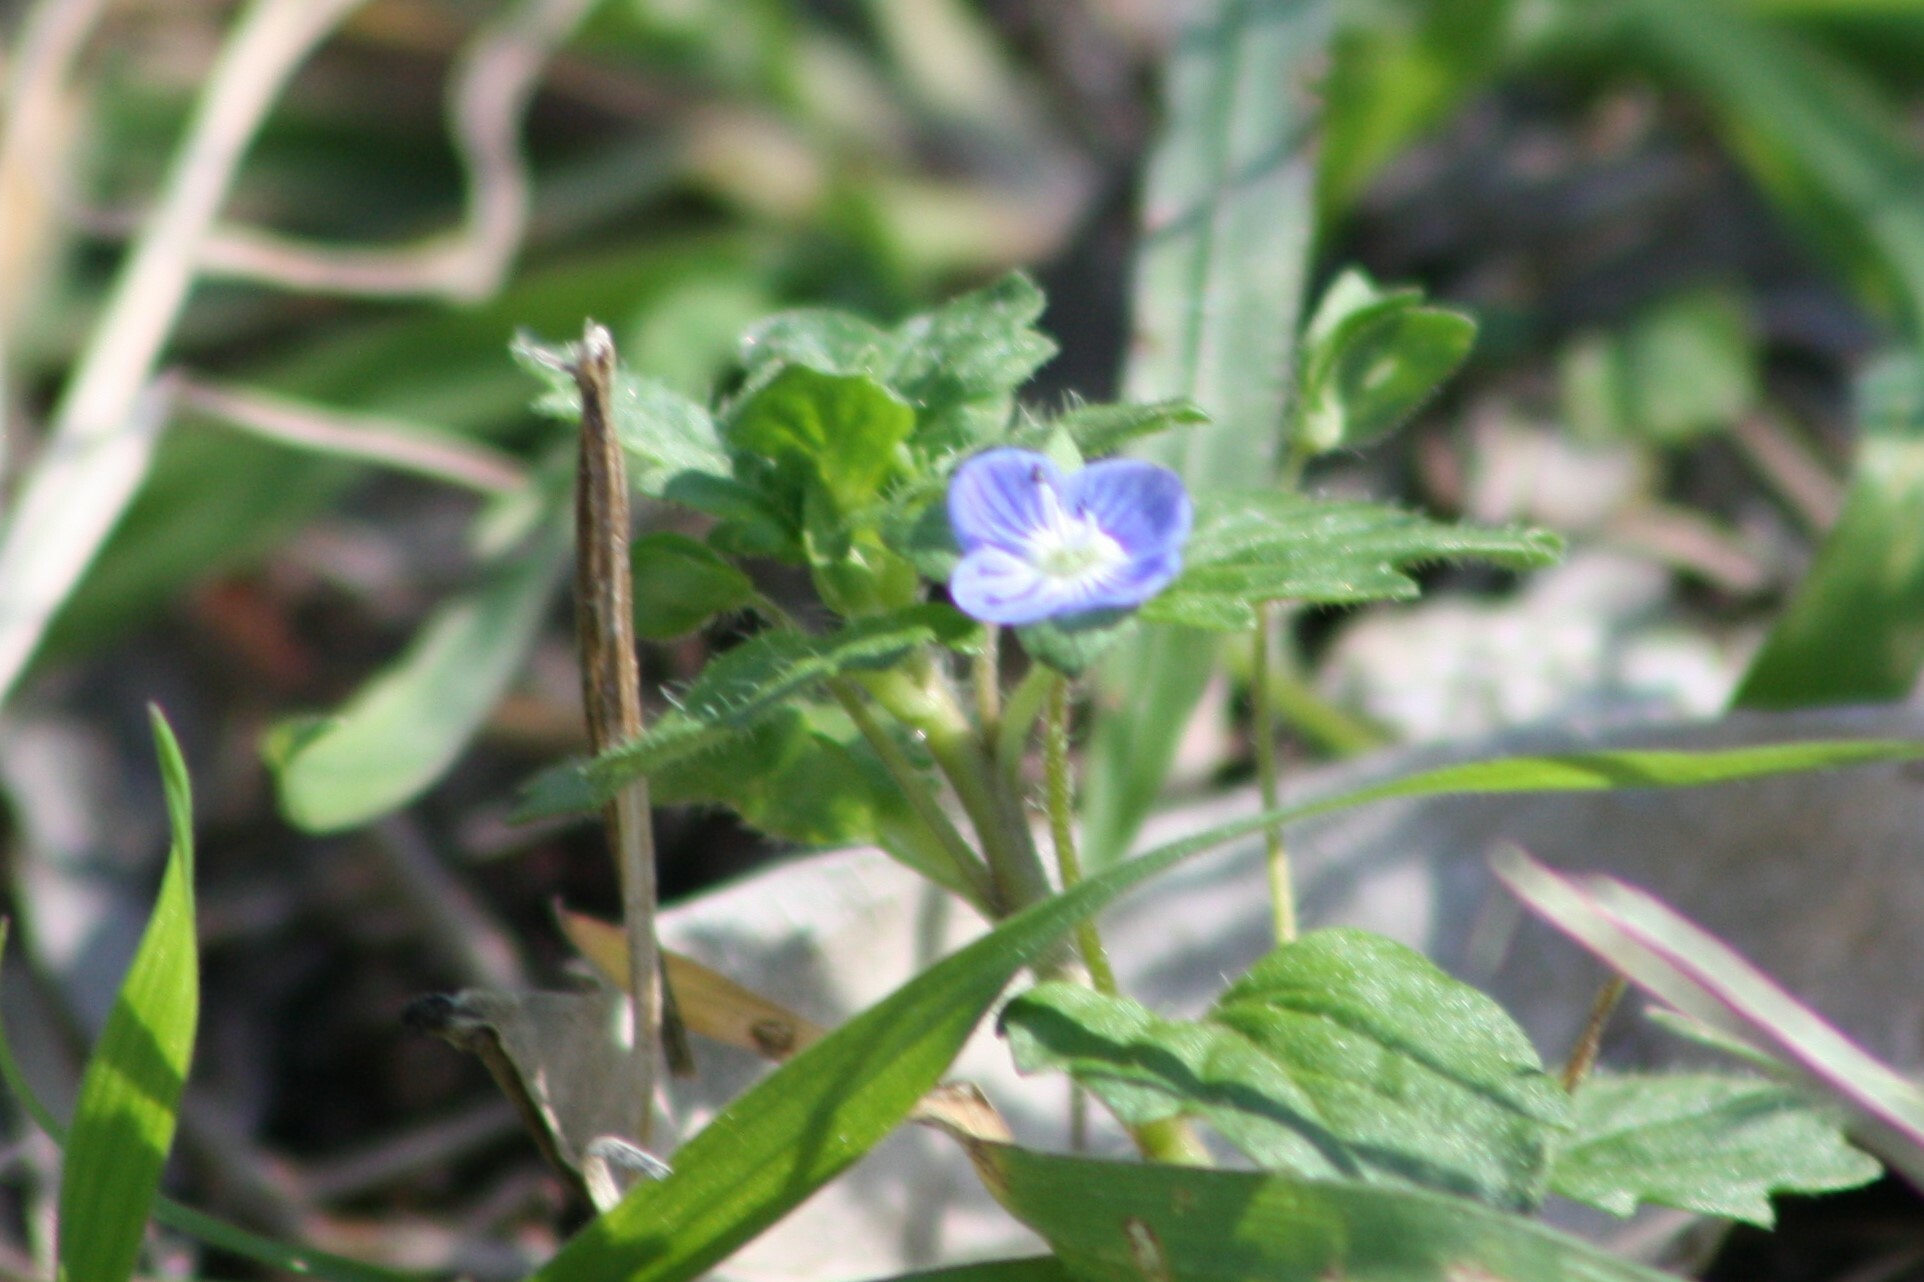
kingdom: Plantae
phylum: Tracheophyta
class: Magnoliopsida
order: Lamiales
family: Plantaginaceae
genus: Veronica
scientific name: Veronica persica
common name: Common field-speedwell
